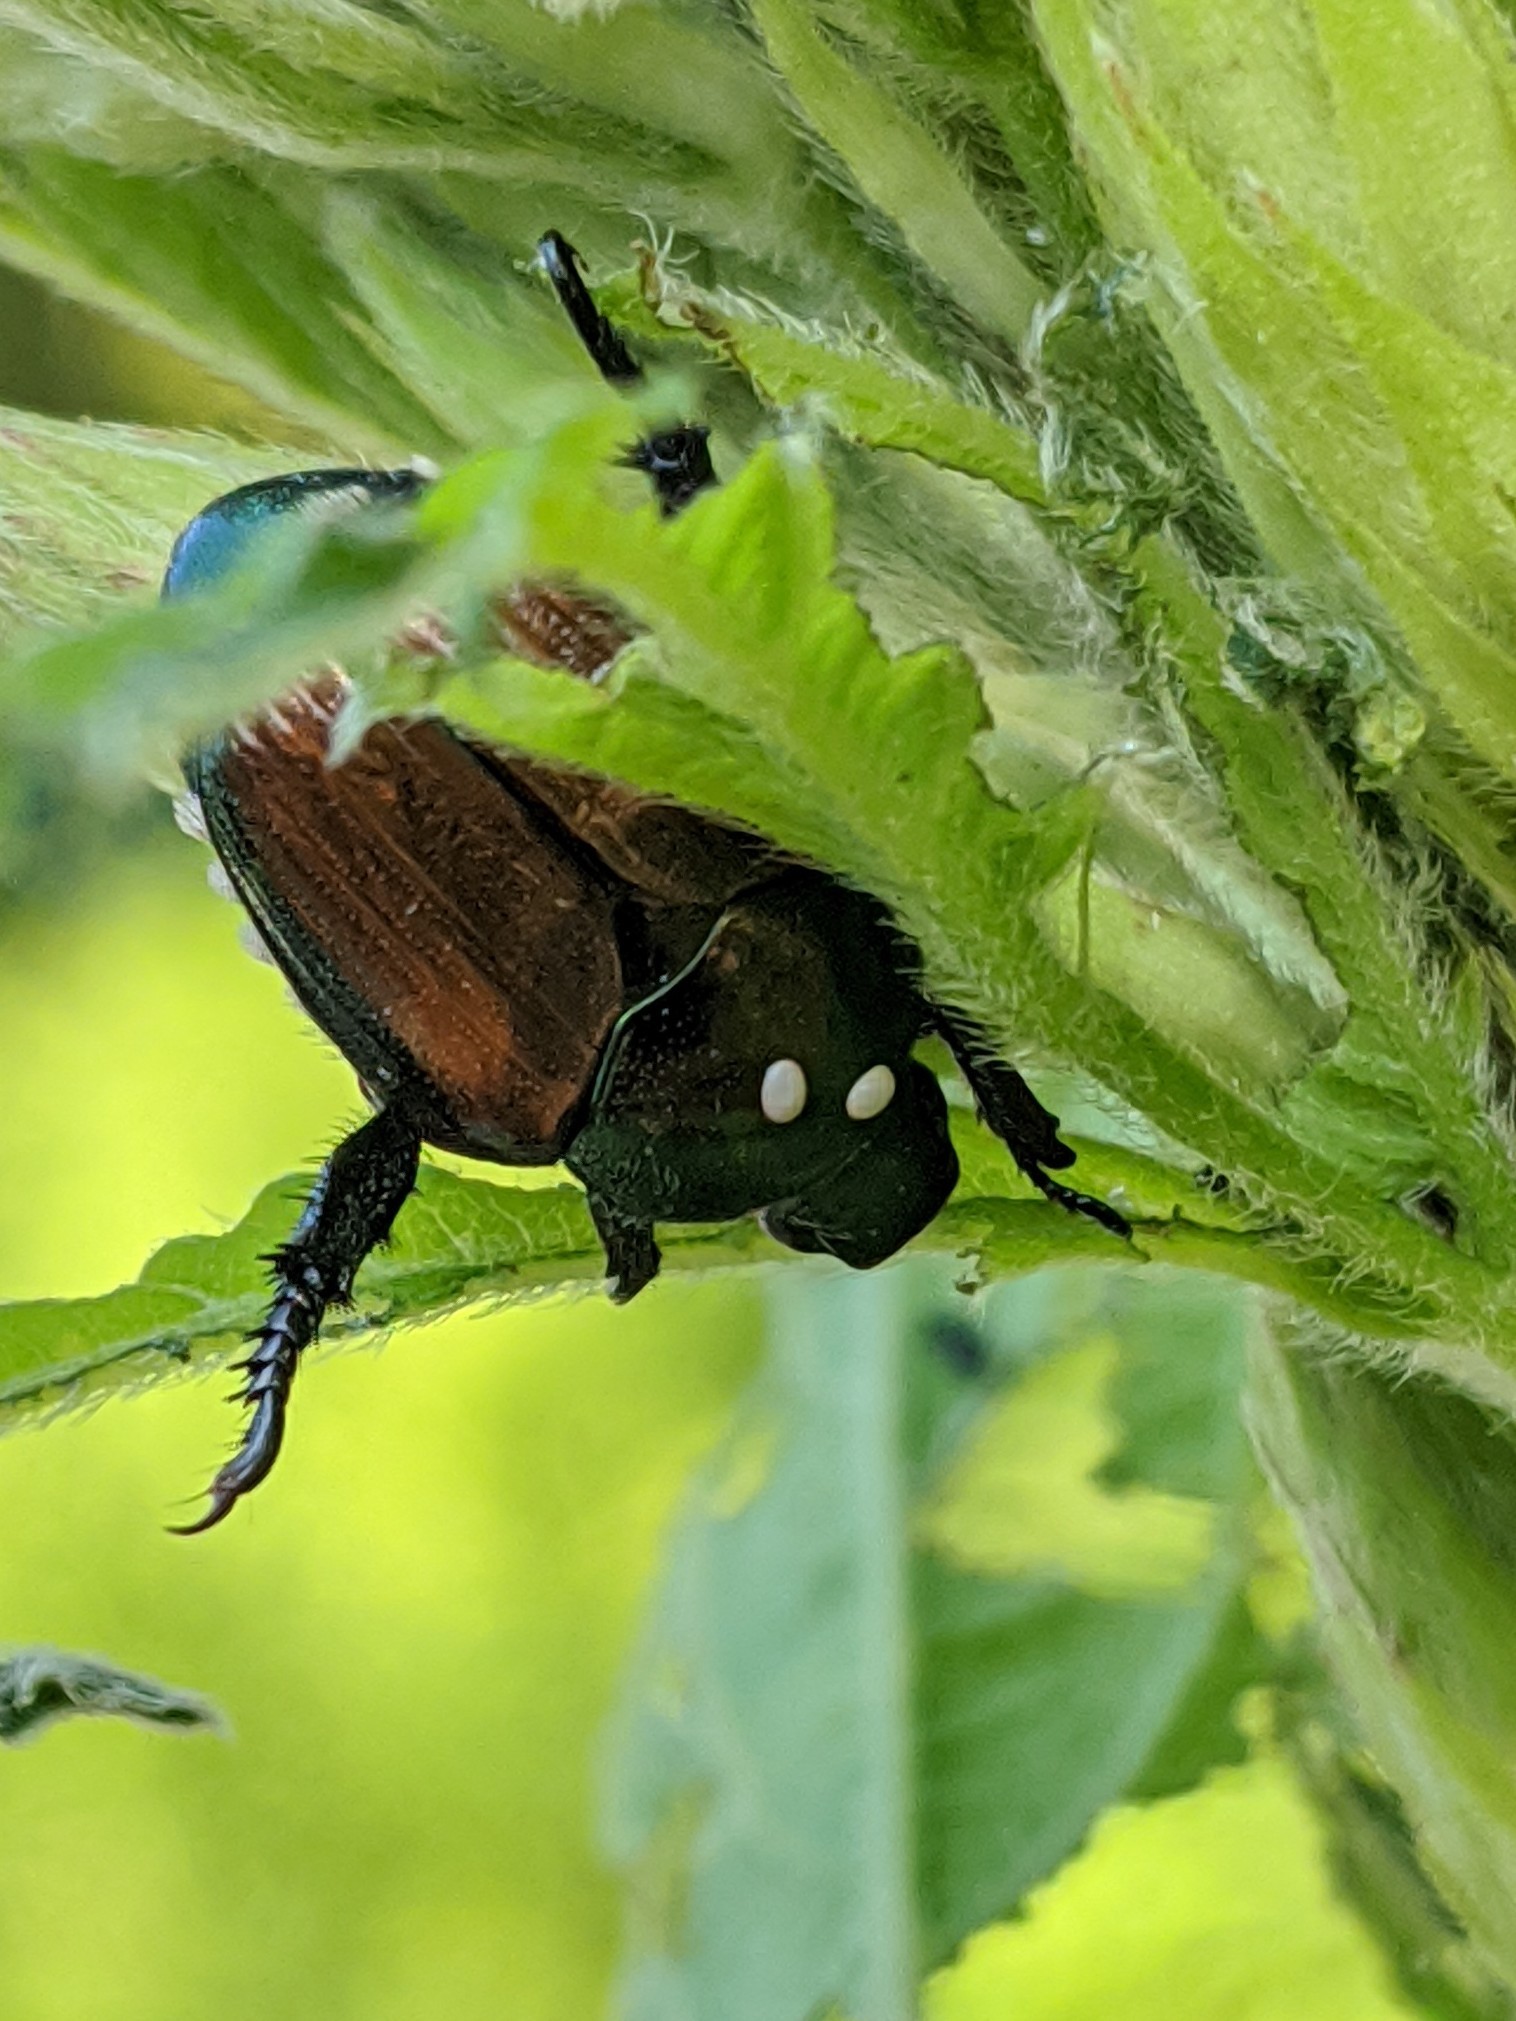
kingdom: Animalia
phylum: Arthropoda
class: Insecta
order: Diptera
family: Tachinidae
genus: Istocheta
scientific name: Istocheta aldrichi
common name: Parasitic wasp
